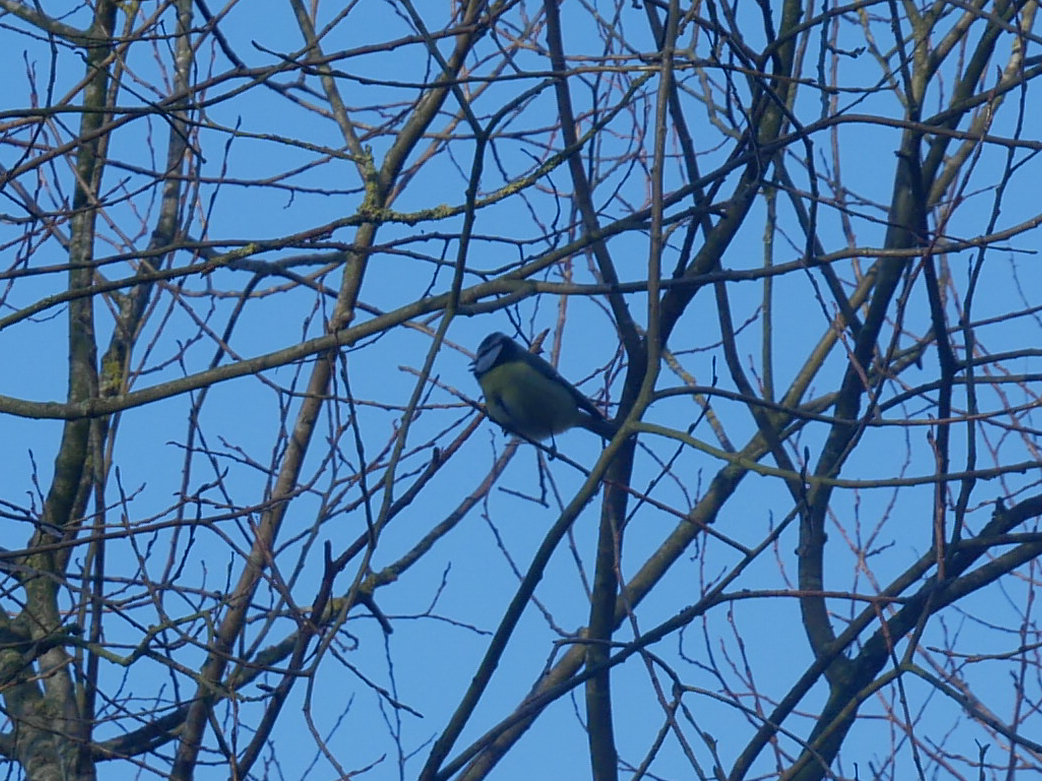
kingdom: Animalia
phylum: Chordata
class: Aves
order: Passeriformes
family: Paridae
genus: Cyanistes
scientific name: Cyanistes caeruleus
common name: Eurasian blue tit
